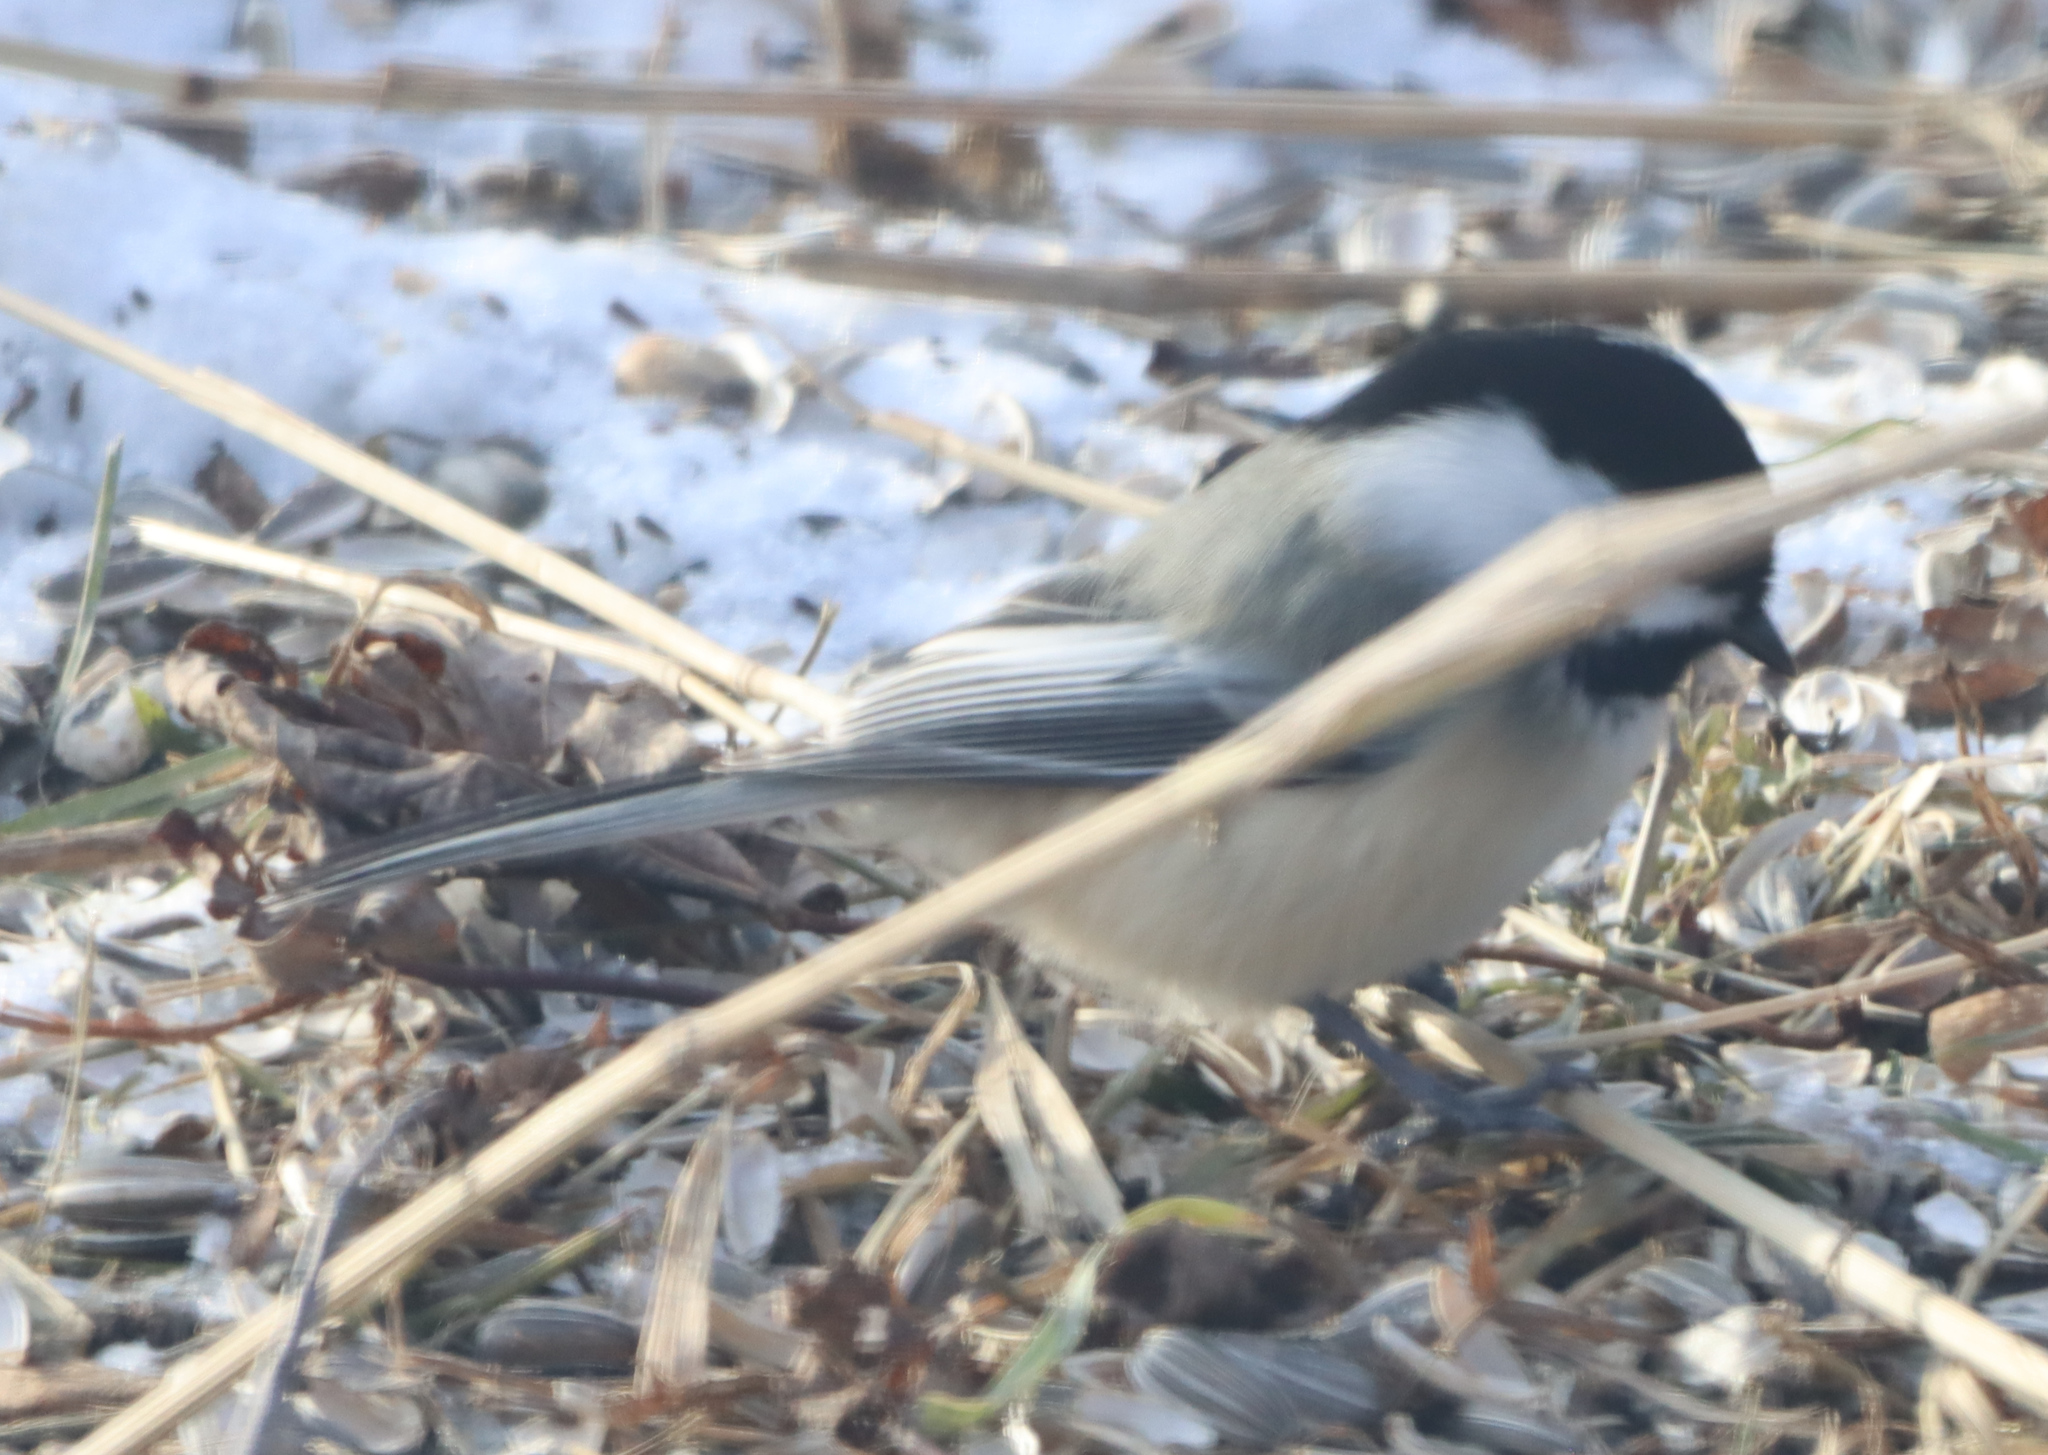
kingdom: Animalia
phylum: Chordata
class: Aves
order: Passeriformes
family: Paridae
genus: Poecile
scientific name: Poecile atricapillus
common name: Black-capped chickadee
